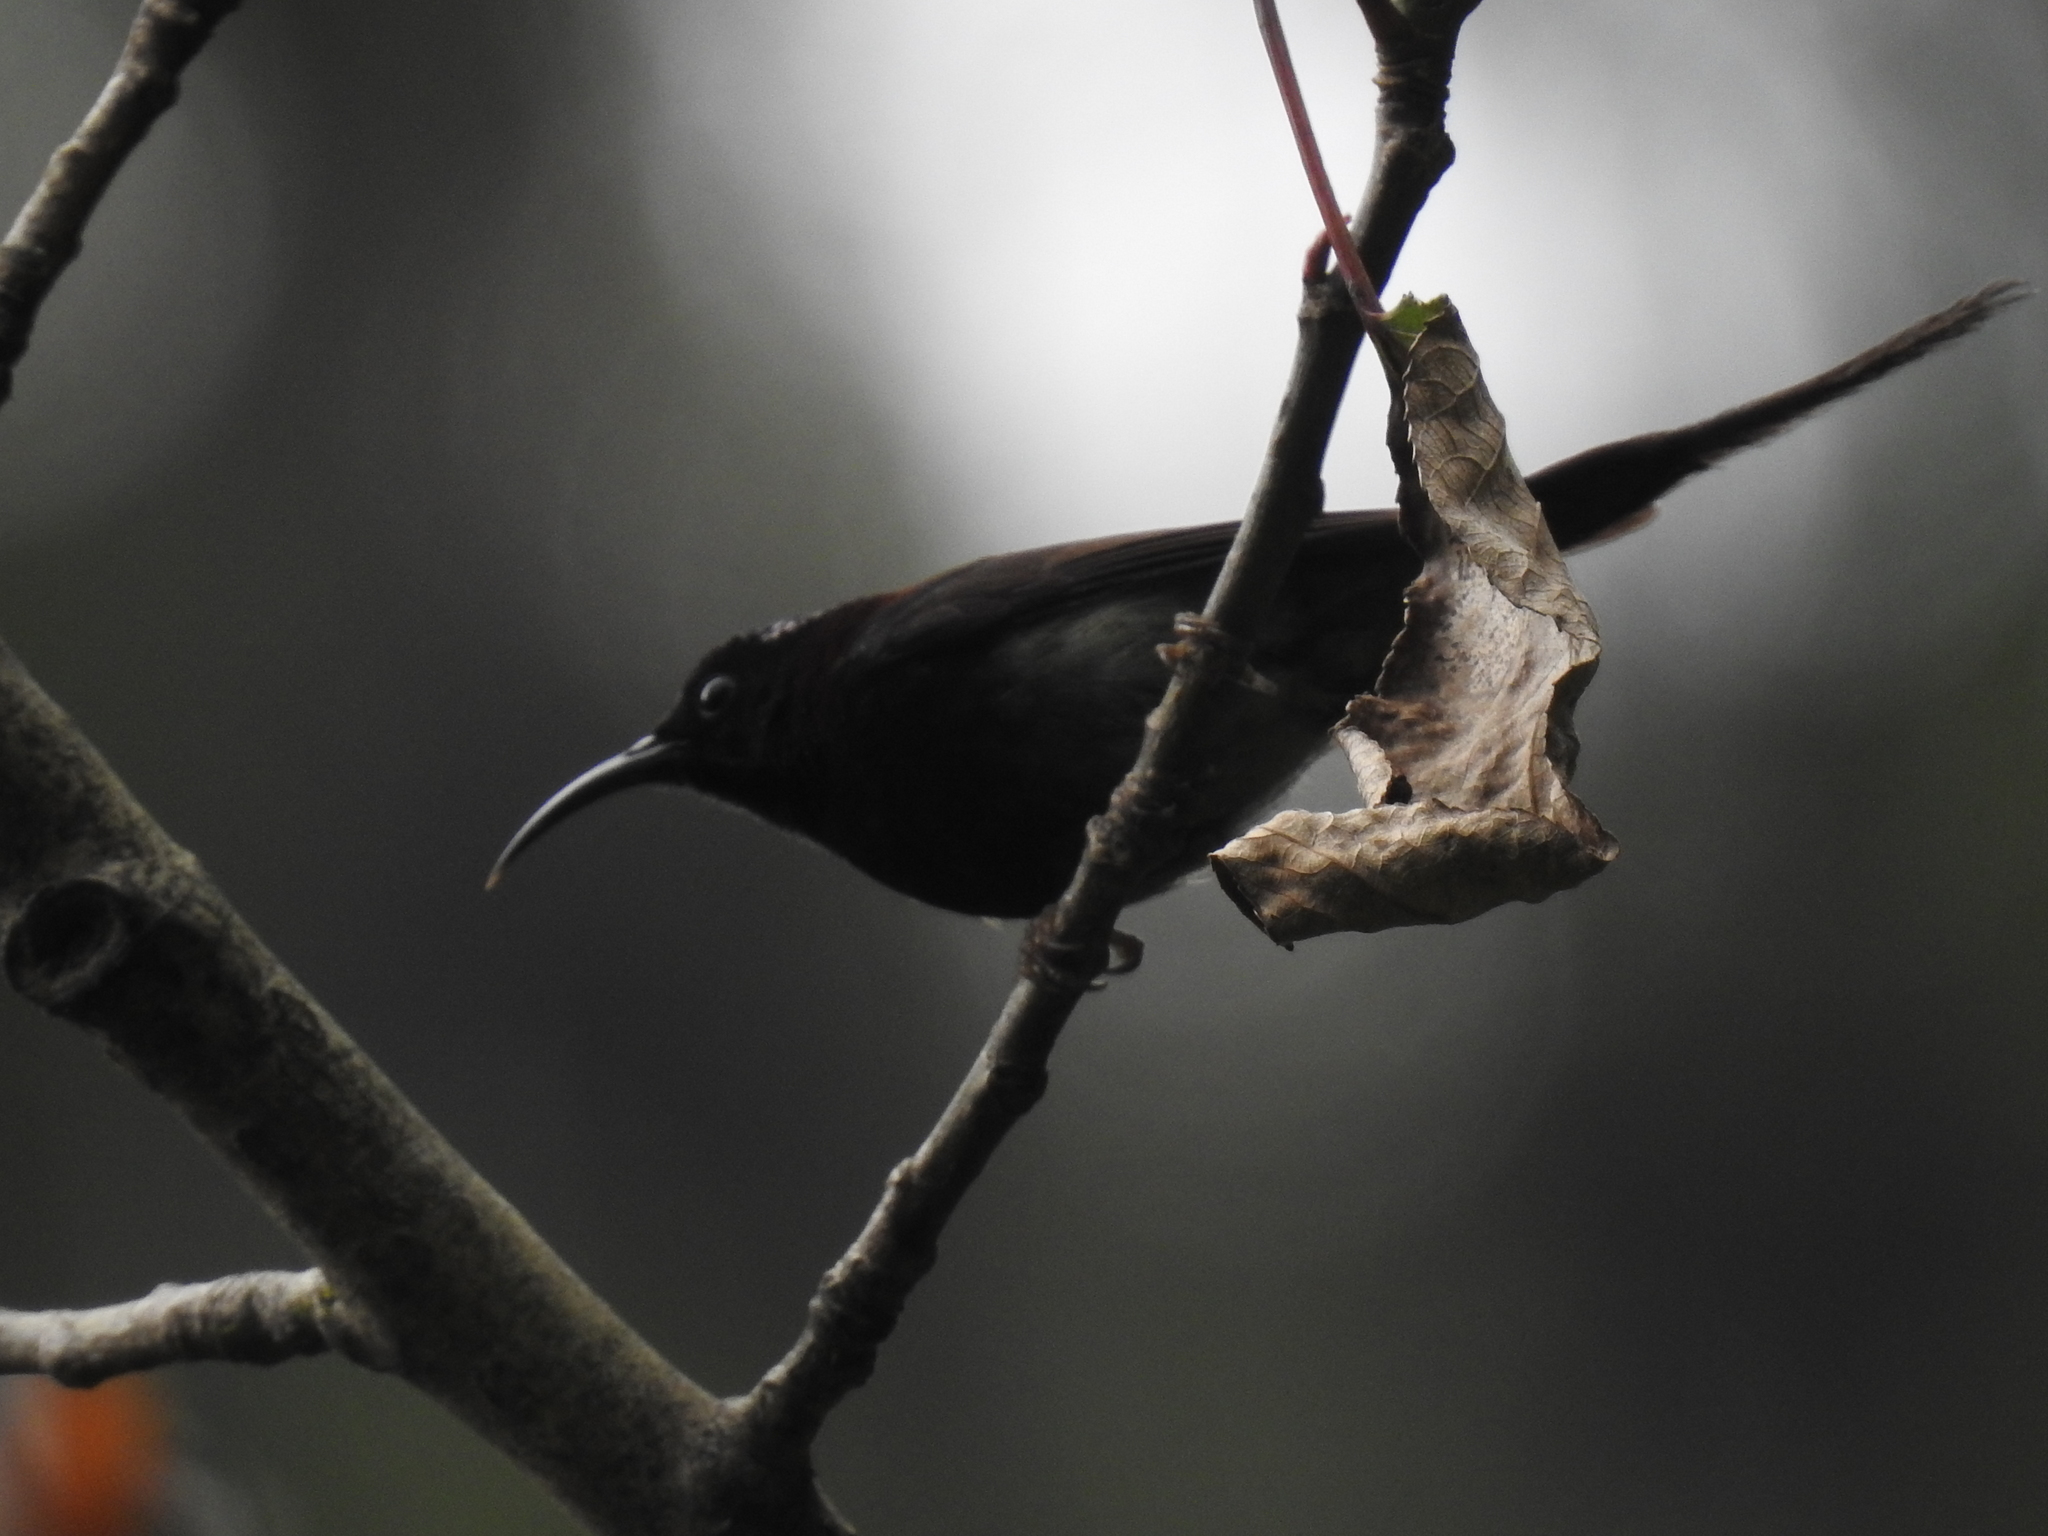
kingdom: Animalia
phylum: Chordata
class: Aves
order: Passeriformes
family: Nectariniidae
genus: Aethopyga
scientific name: Aethopyga saturata
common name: Black-throated sunbird
